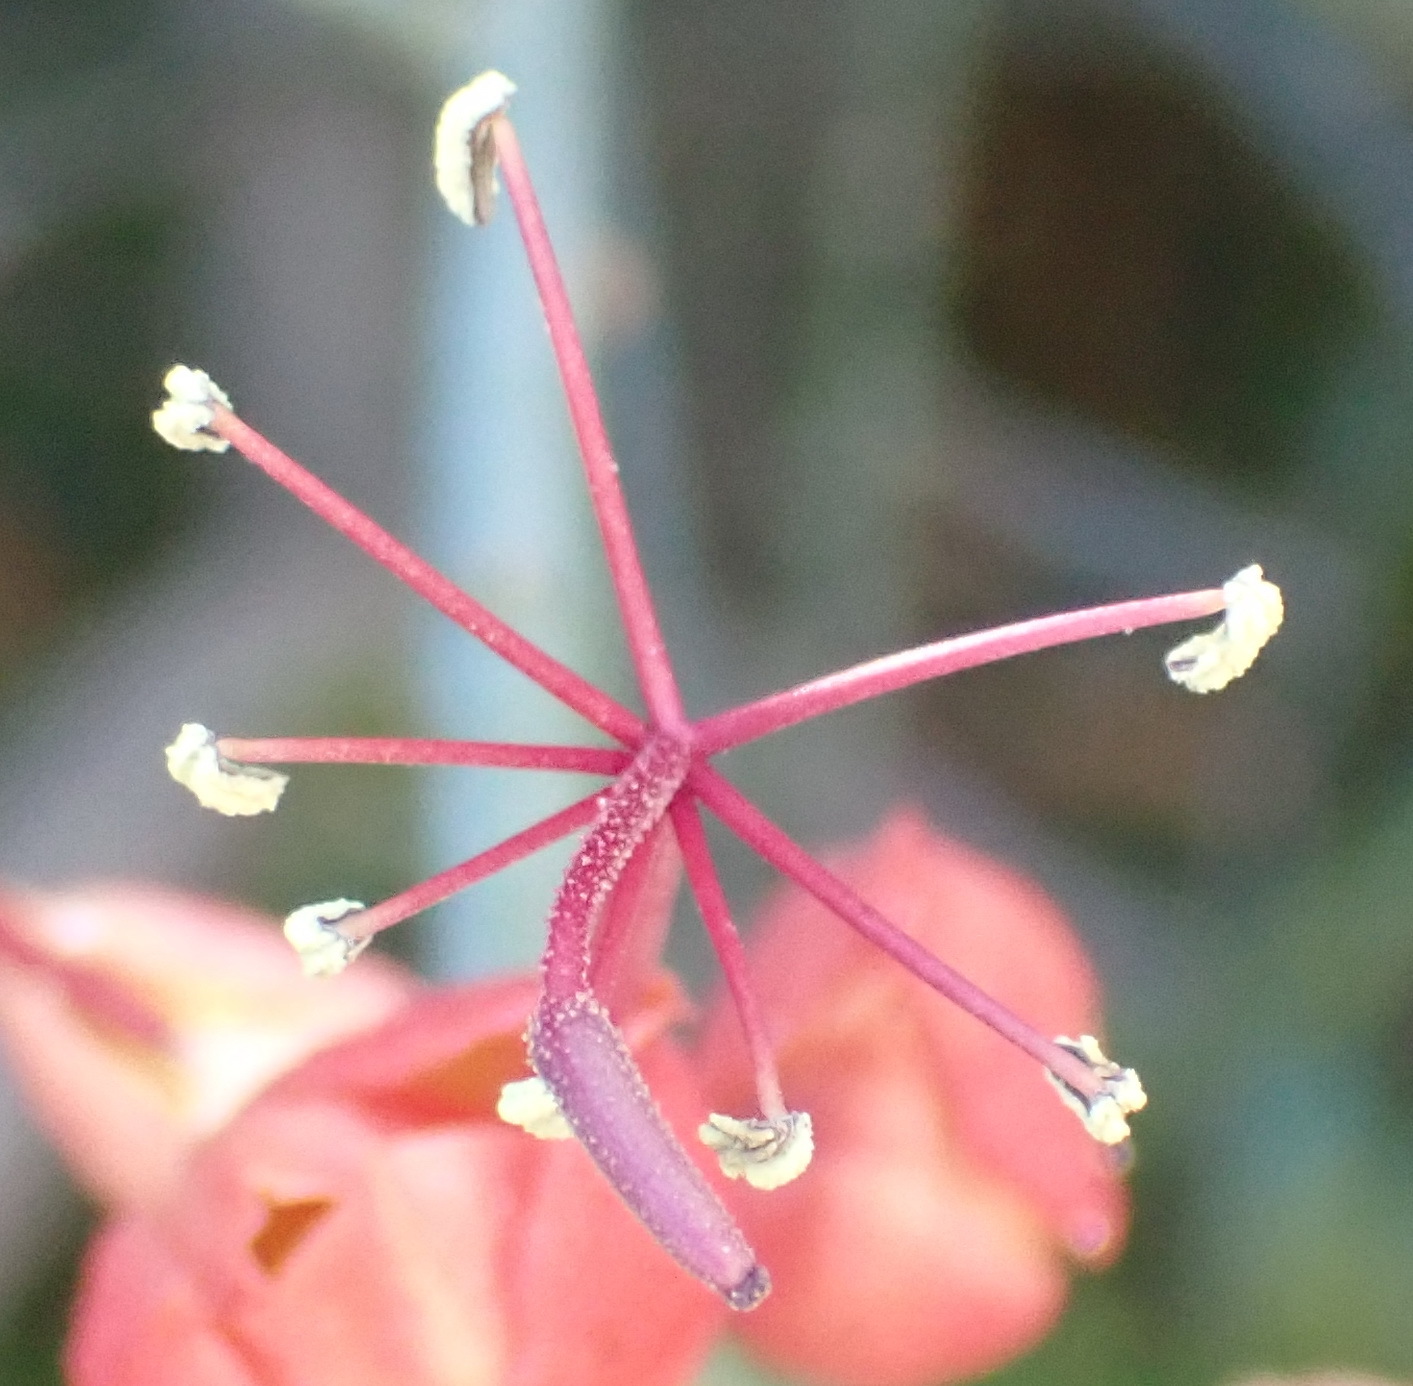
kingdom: Plantae
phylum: Tracheophyta
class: Magnoliopsida
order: Brassicales
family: Capparaceae
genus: Cadaba
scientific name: Cadaba aphylla
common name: Black storm
